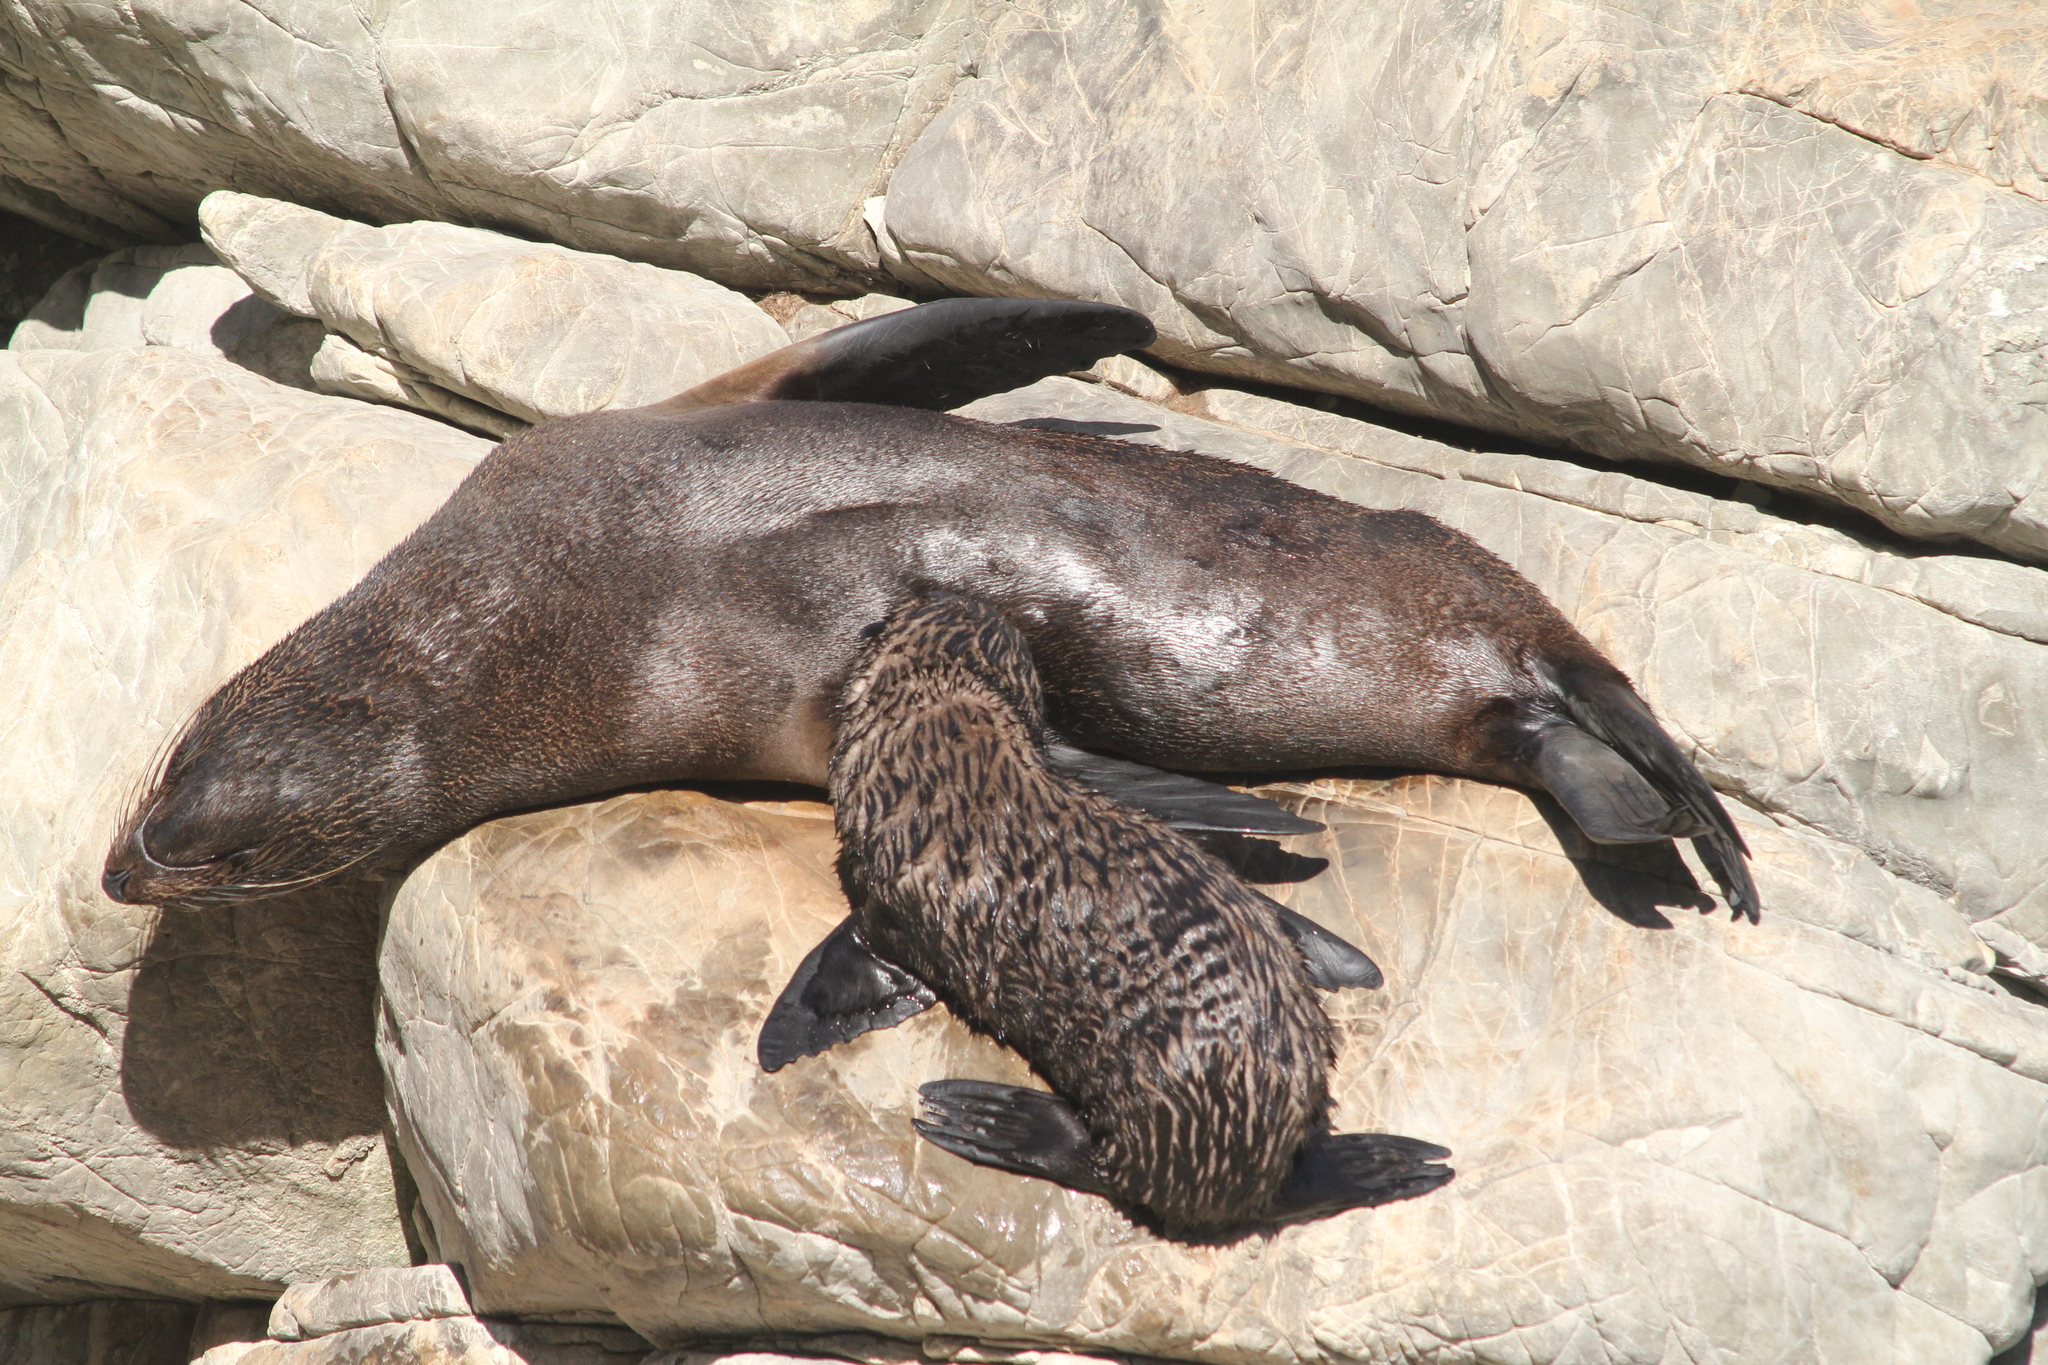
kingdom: Animalia
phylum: Chordata
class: Mammalia
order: Carnivora
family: Otariidae
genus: Arctocephalus
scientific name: Arctocephalus forsteri
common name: New zealand fur seal
